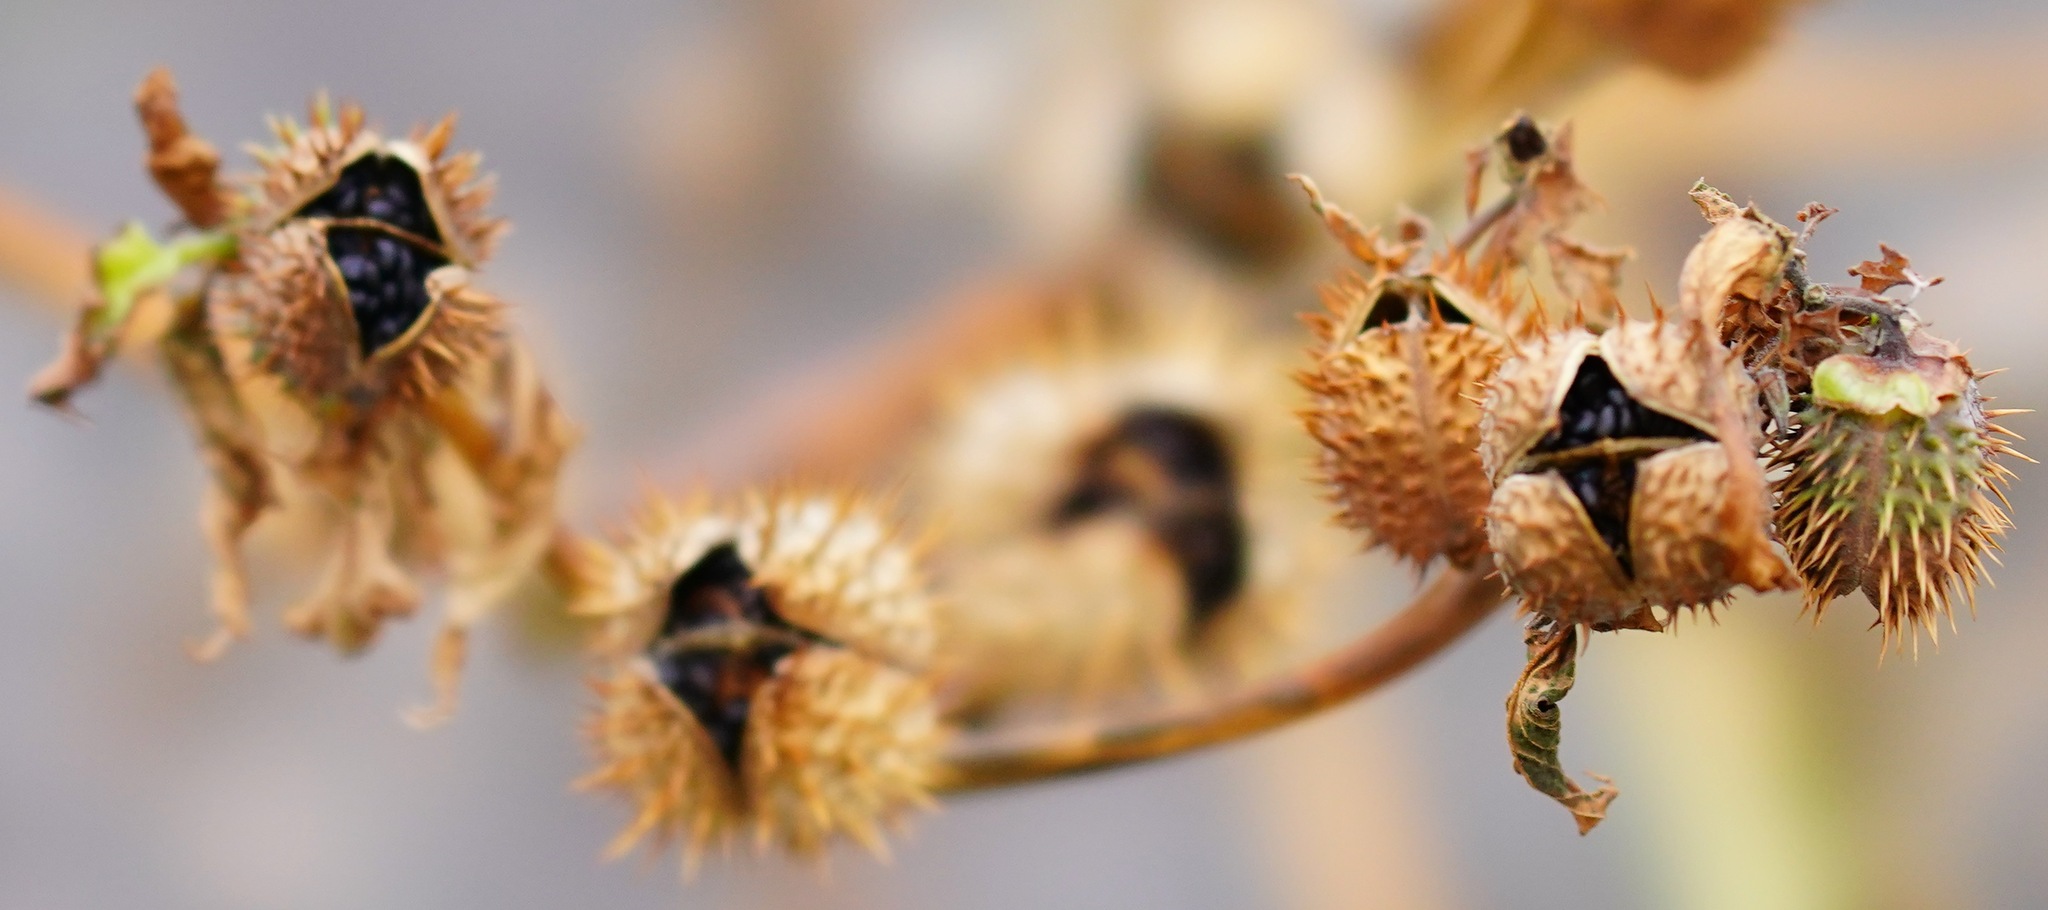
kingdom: Plantae
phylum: Tracheophyta
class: Magnoliopsida
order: Solanales
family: Solanaceae
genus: Datura
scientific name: Datura stramonium
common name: Thorn-apple
